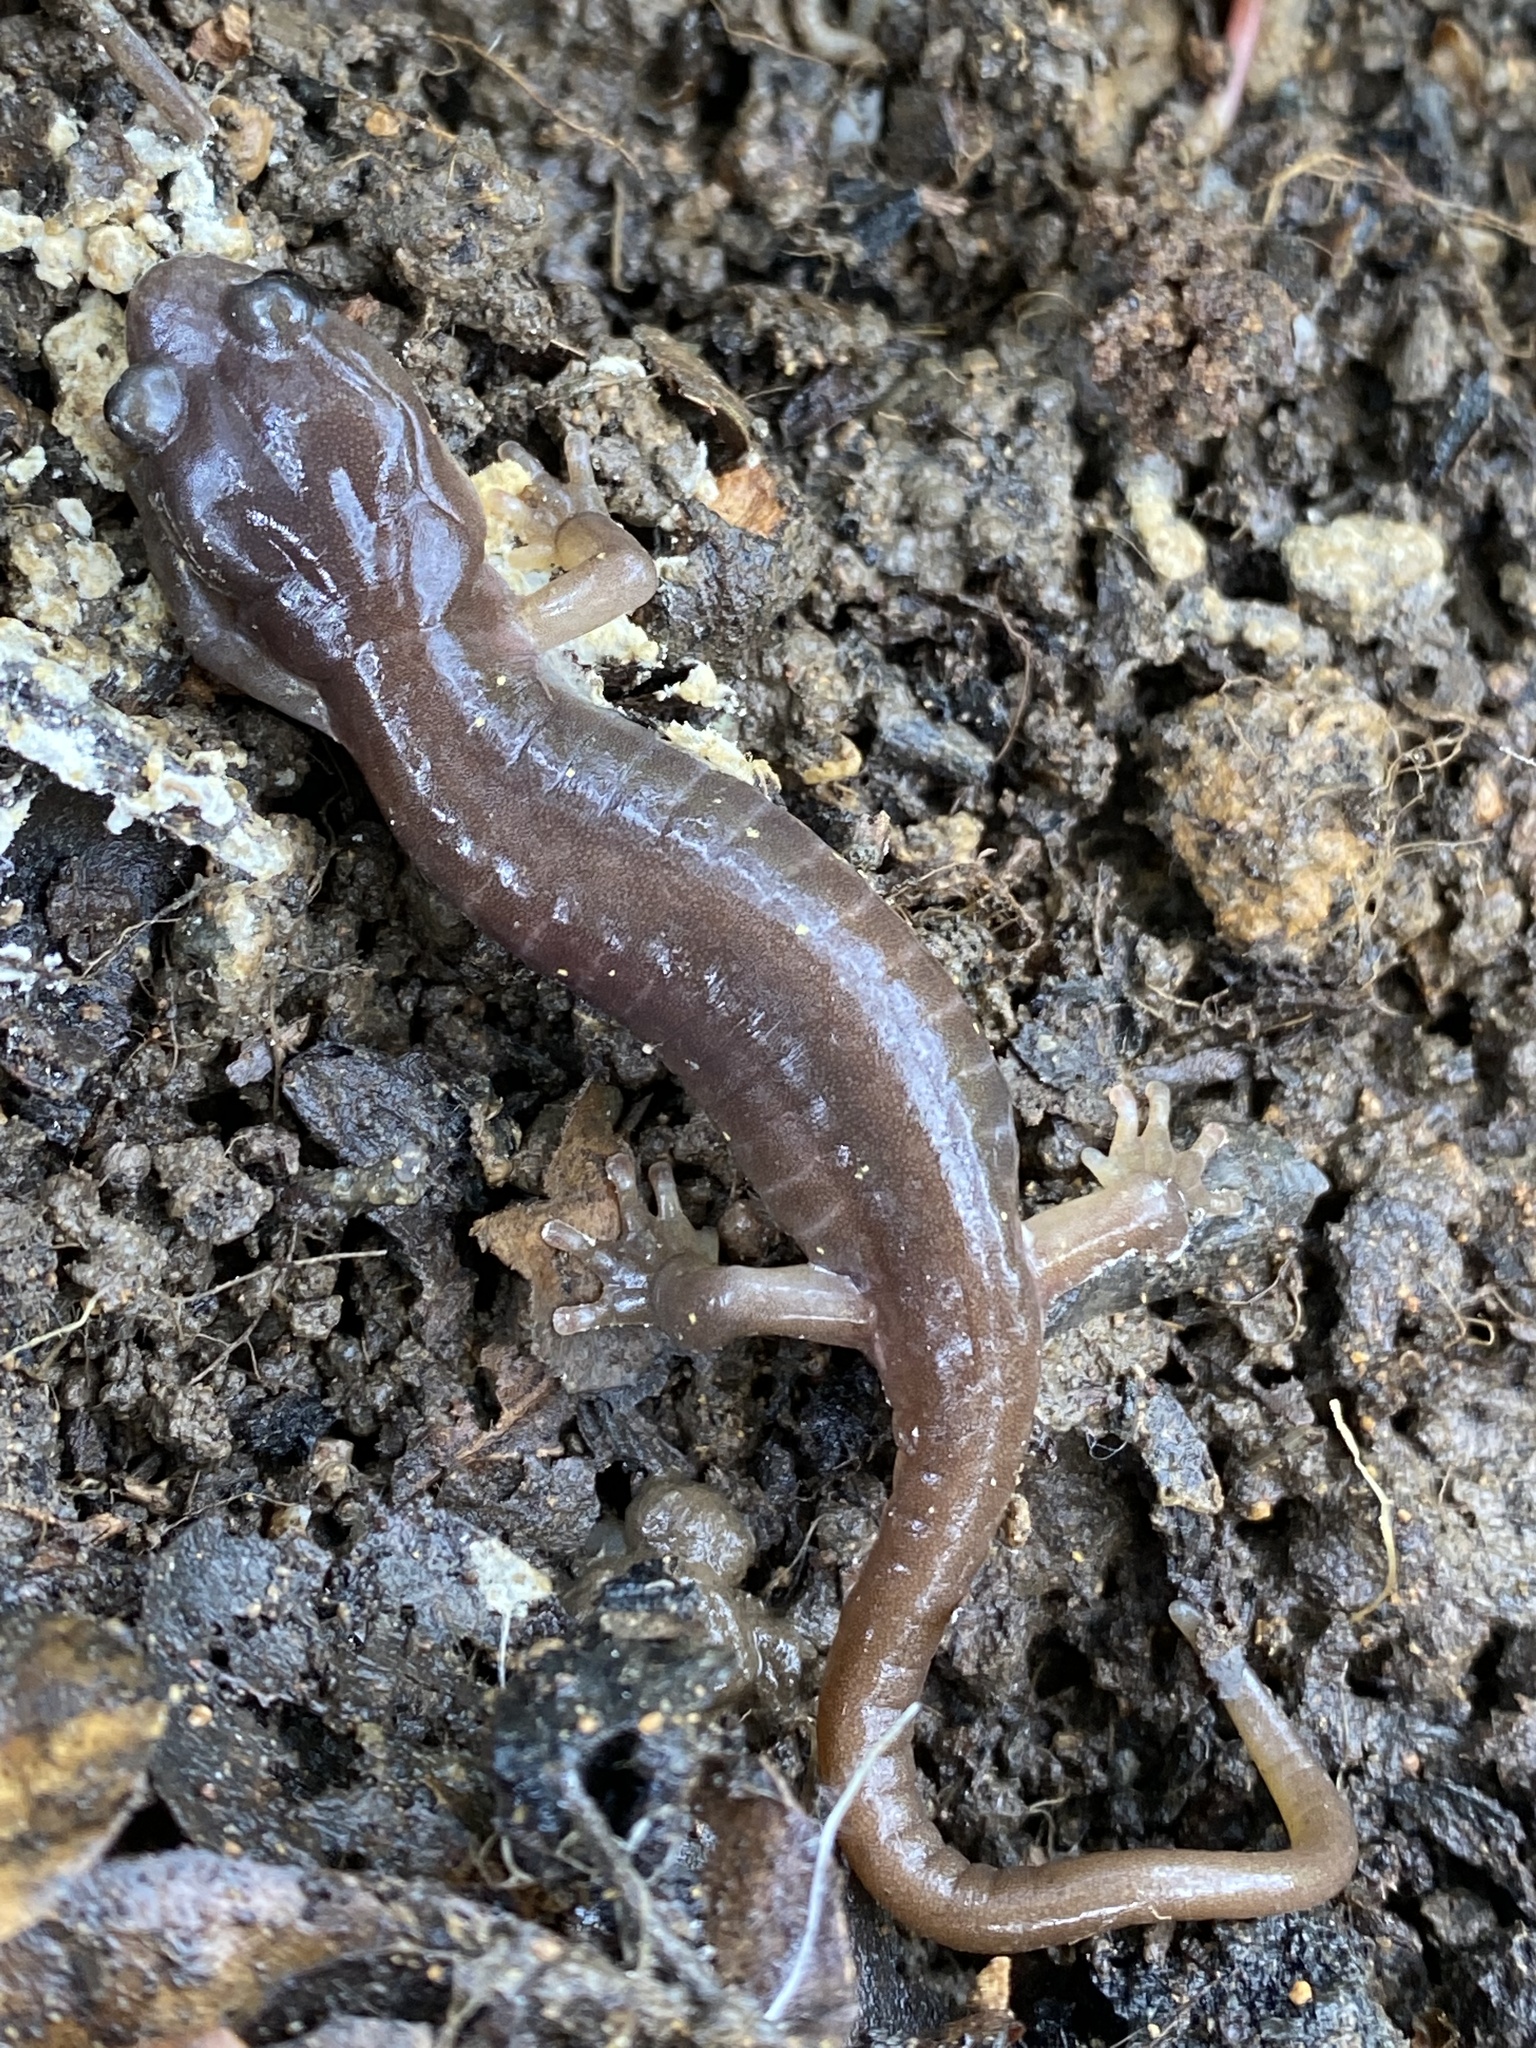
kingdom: Animalia
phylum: Chordata
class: Amphibia
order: Caudata
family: Plethodontidae
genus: Aneides
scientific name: Aneides lugubris
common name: Arboreal salamander
